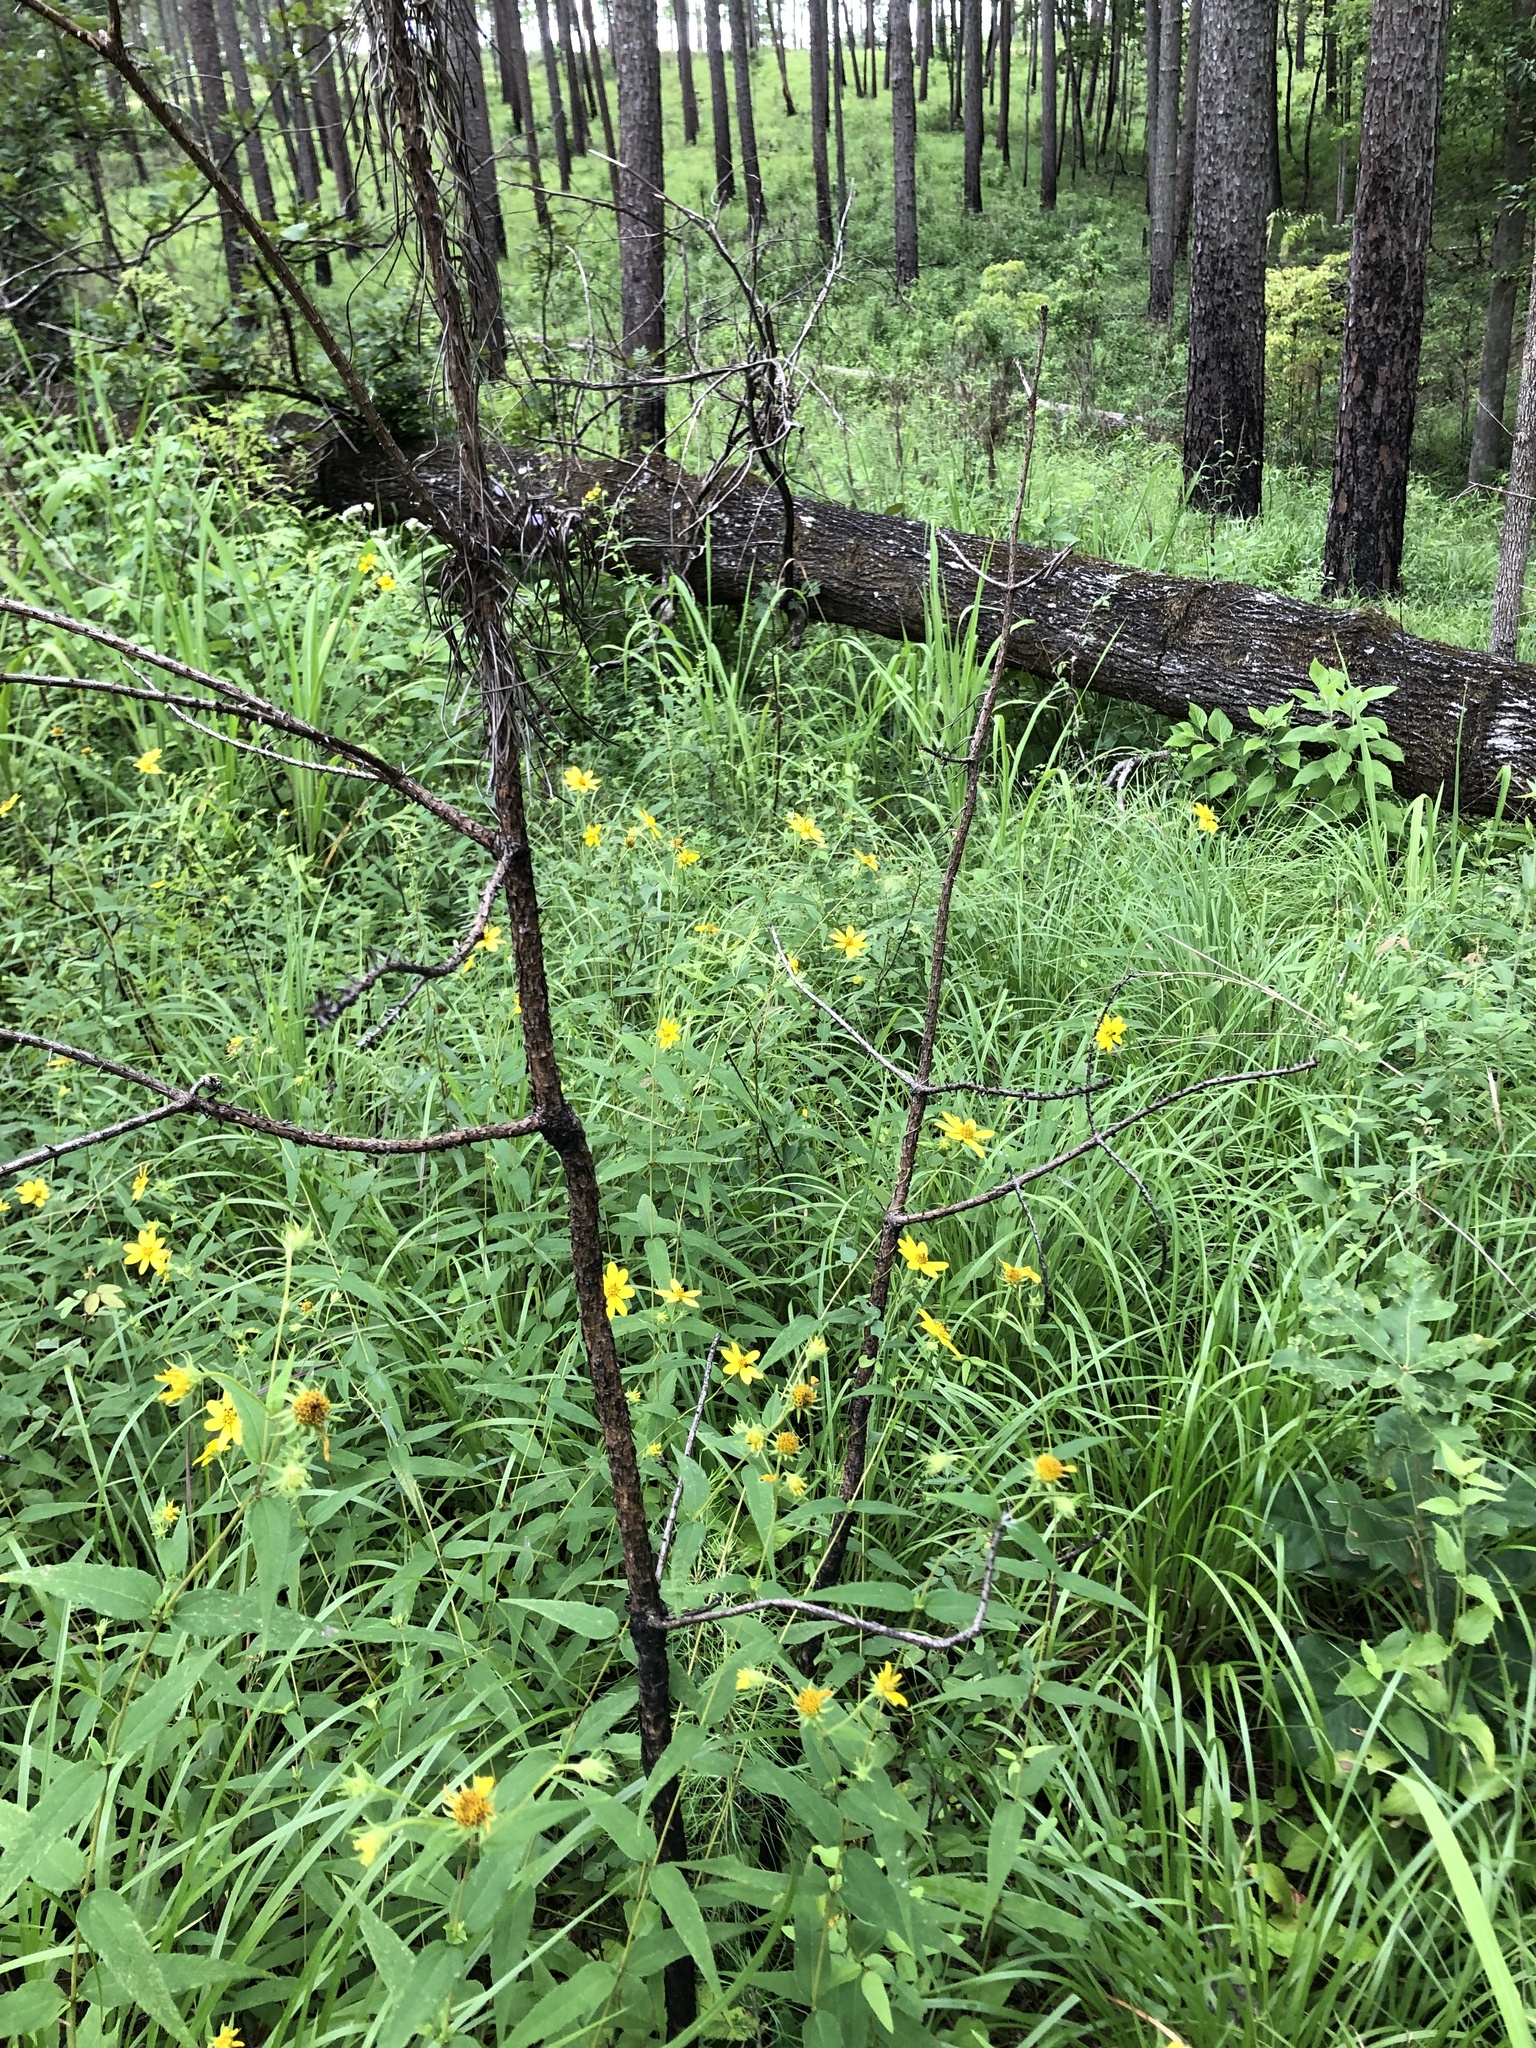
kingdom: Plantae
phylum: Tracheophyta
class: Magnoliopsida
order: Asterales
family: Asteraceae
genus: Helianthus
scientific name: Helianthus microcephalus
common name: Woodland sunflower
